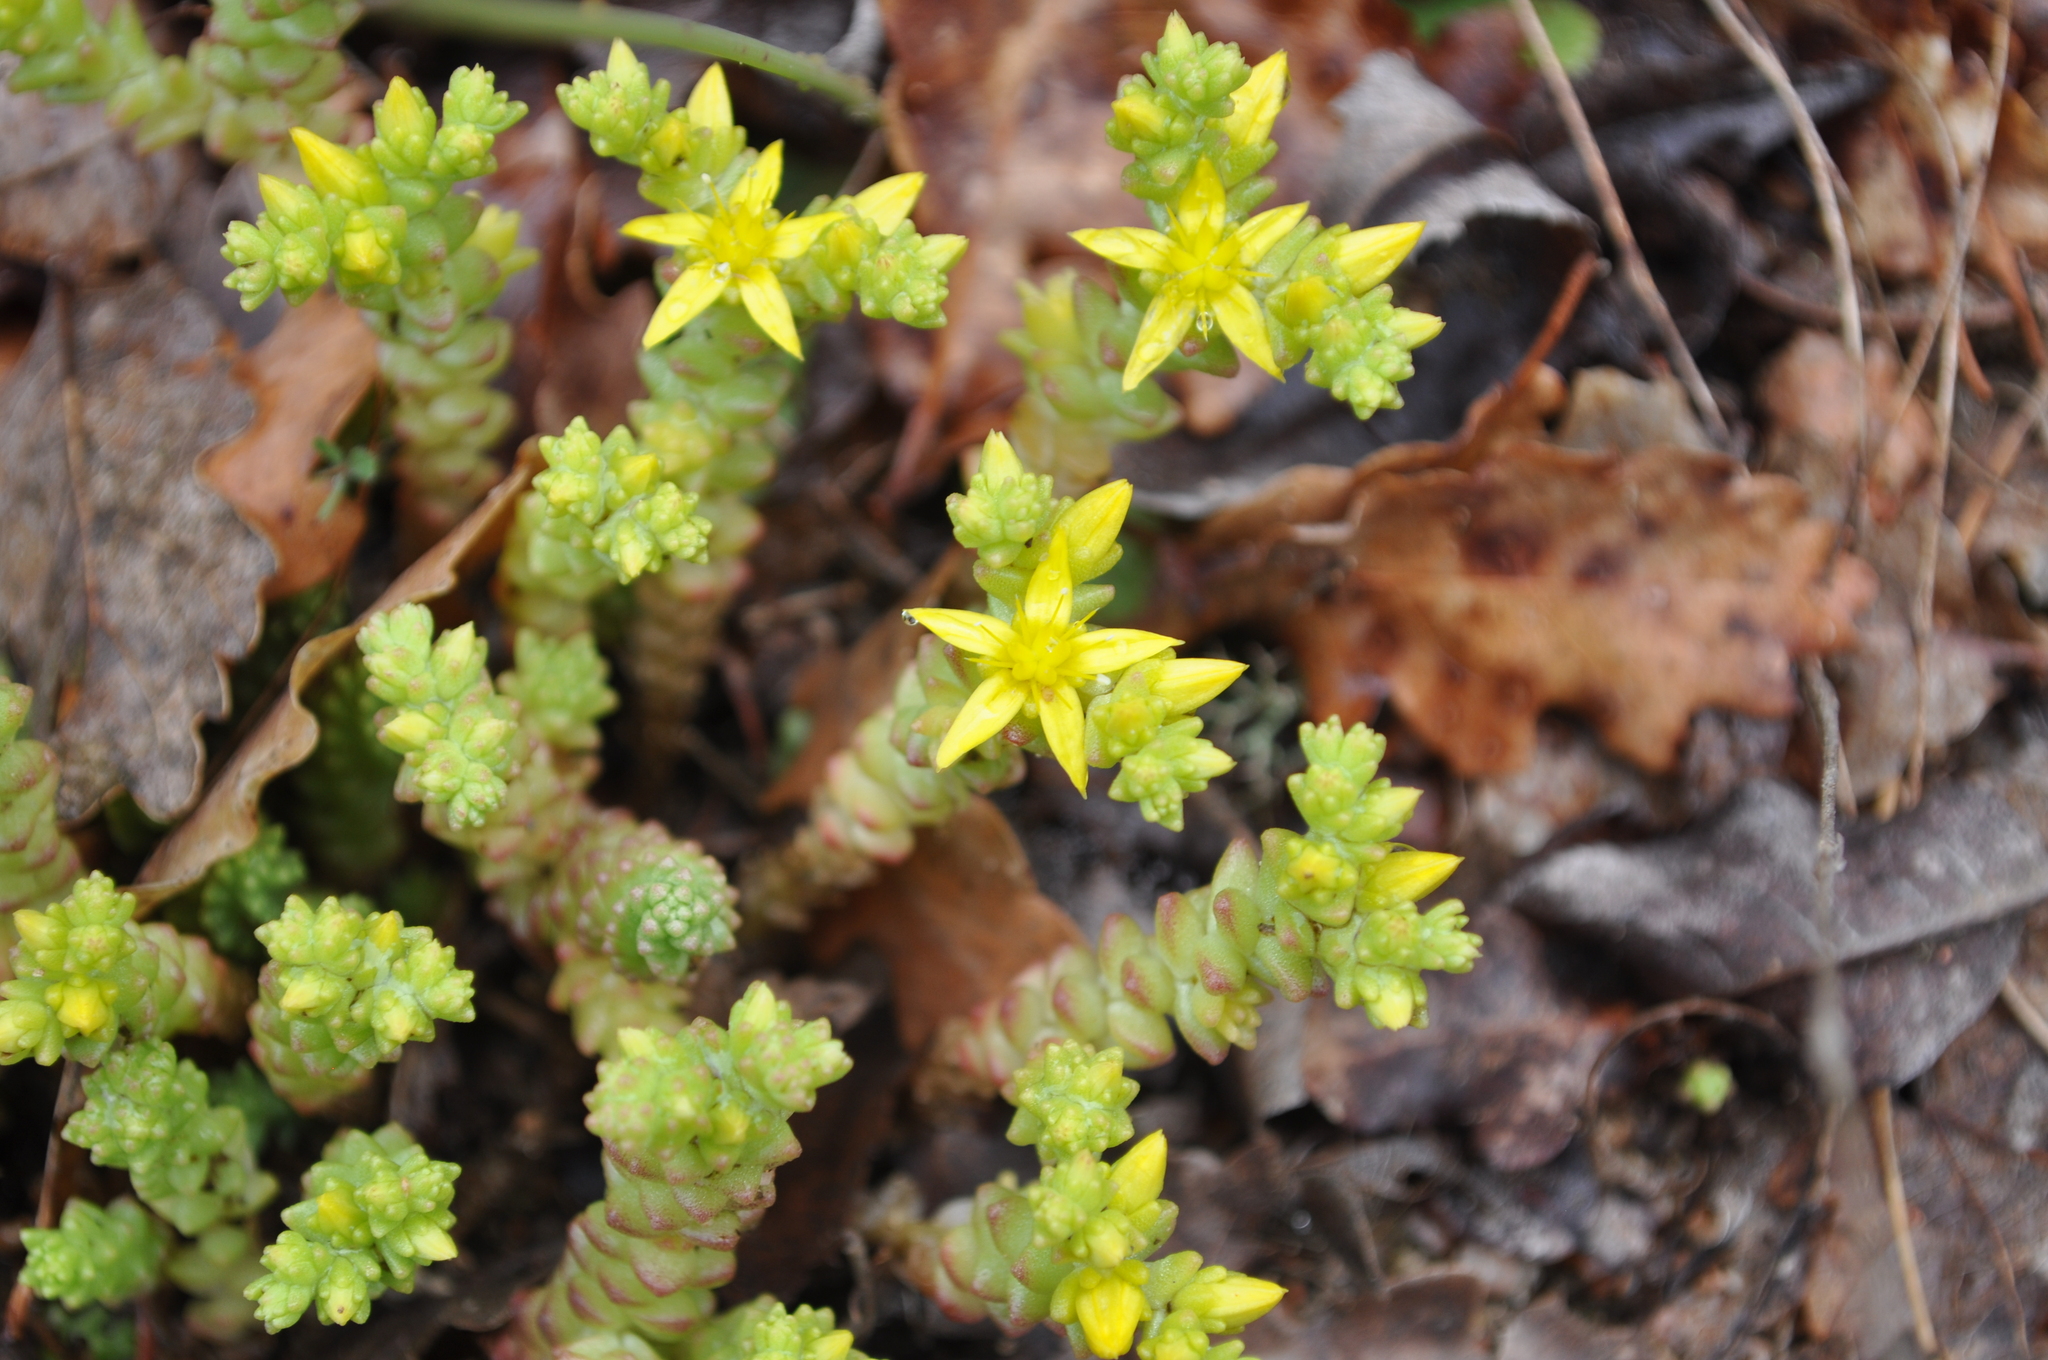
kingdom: Plantae
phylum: Tracheophyta
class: Magnoliopsida
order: Saxifragales
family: Crassulaceae
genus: Sedum
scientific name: Sedum acre
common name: Biting stonecrop
